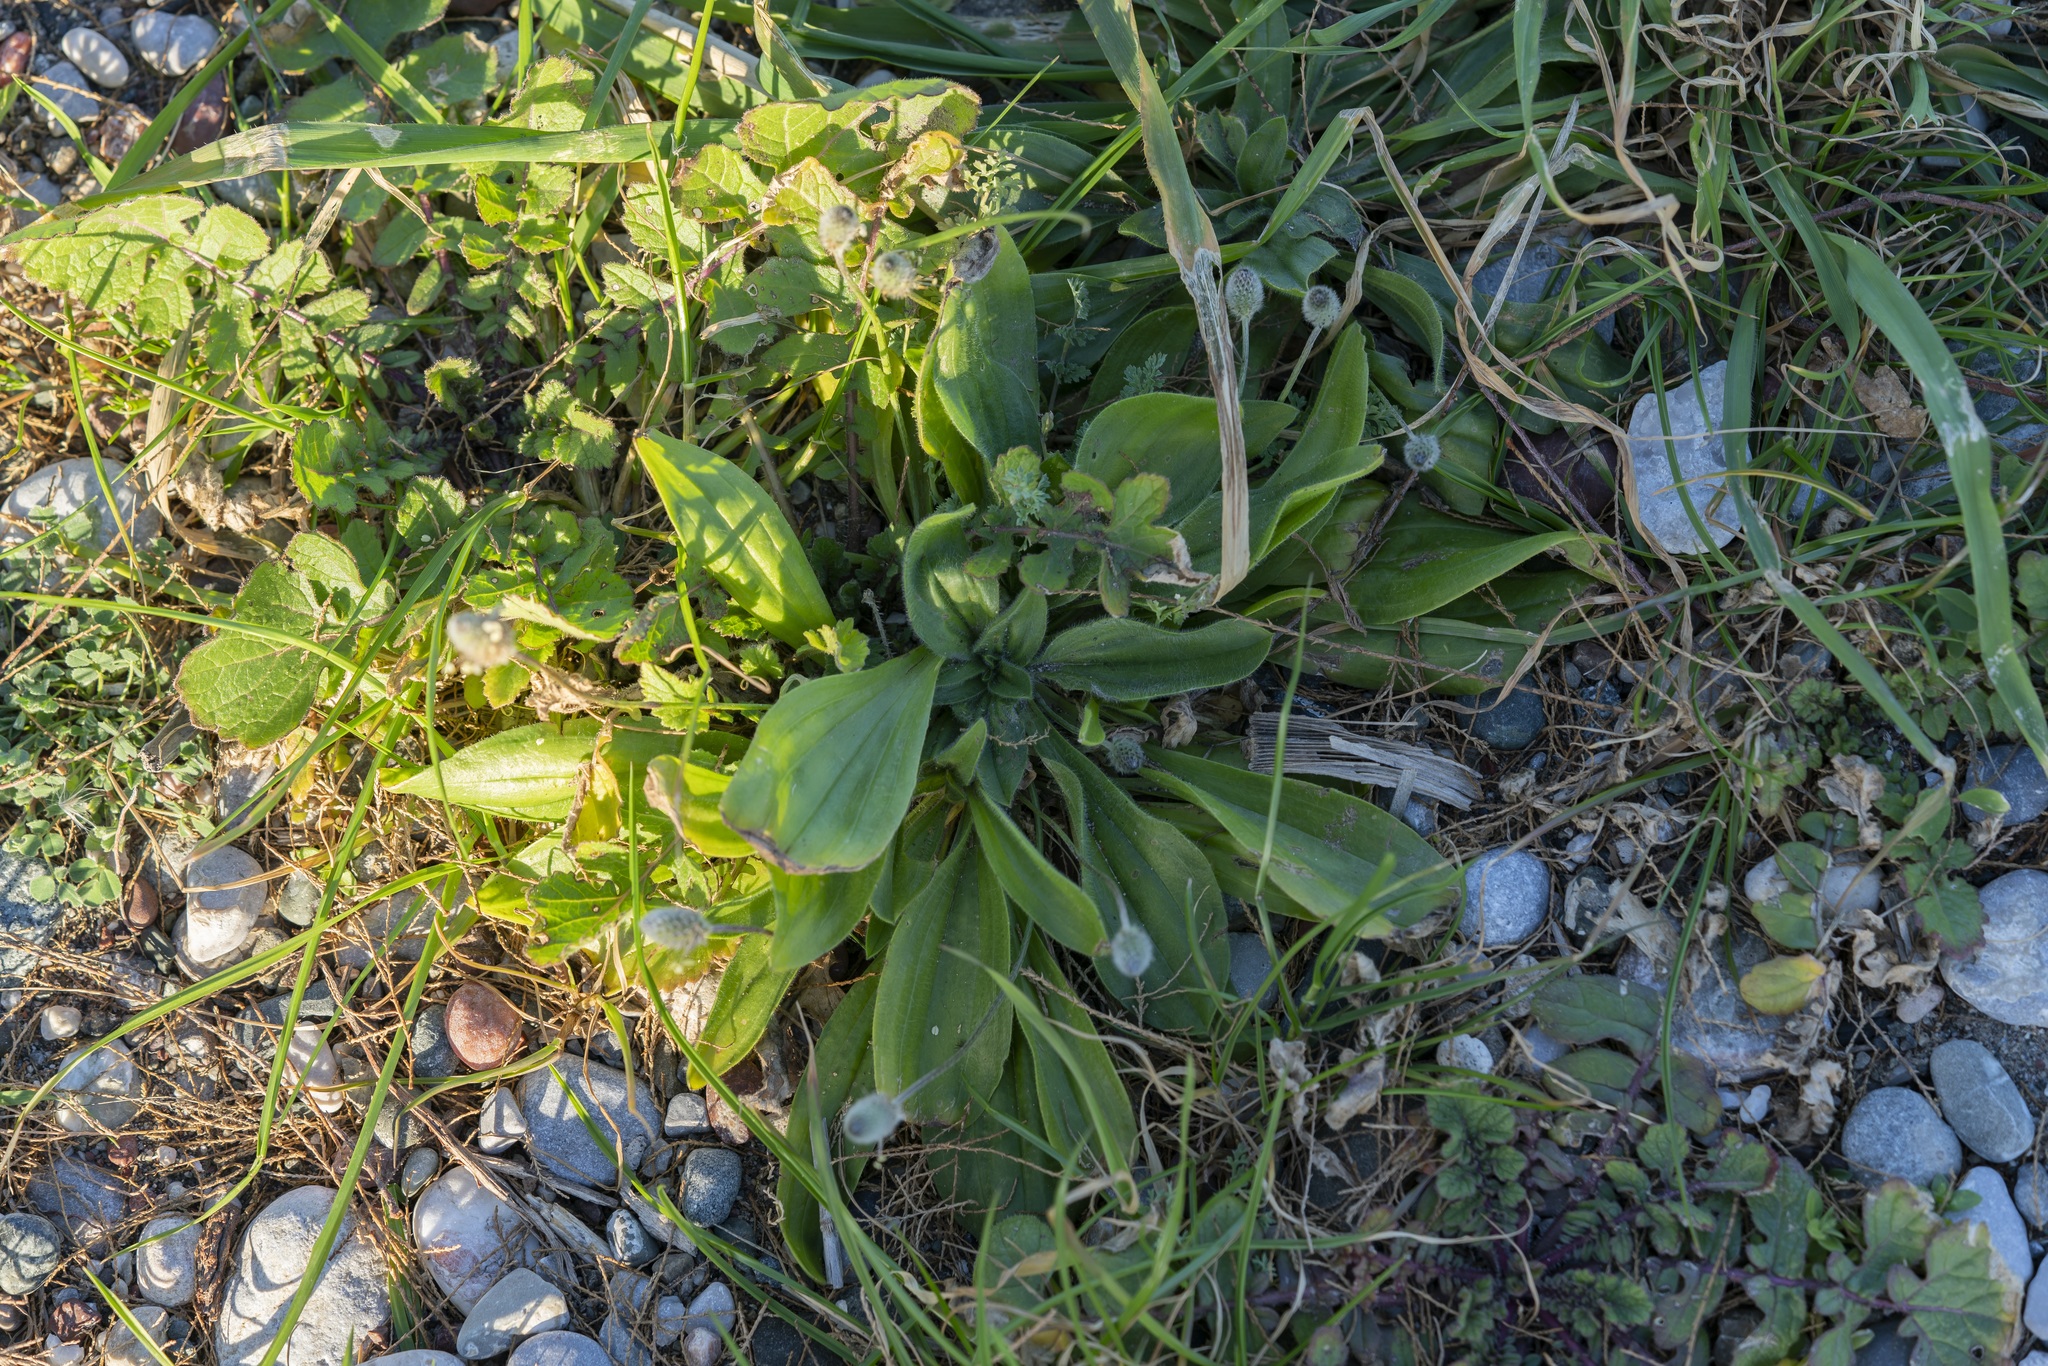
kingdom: Plantae
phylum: Tracheophyta
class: Magnoliopsida
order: Lamiales
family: Plantaginaceae
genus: Plantago
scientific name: Plantago lagopus
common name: Hare-foot plantain
